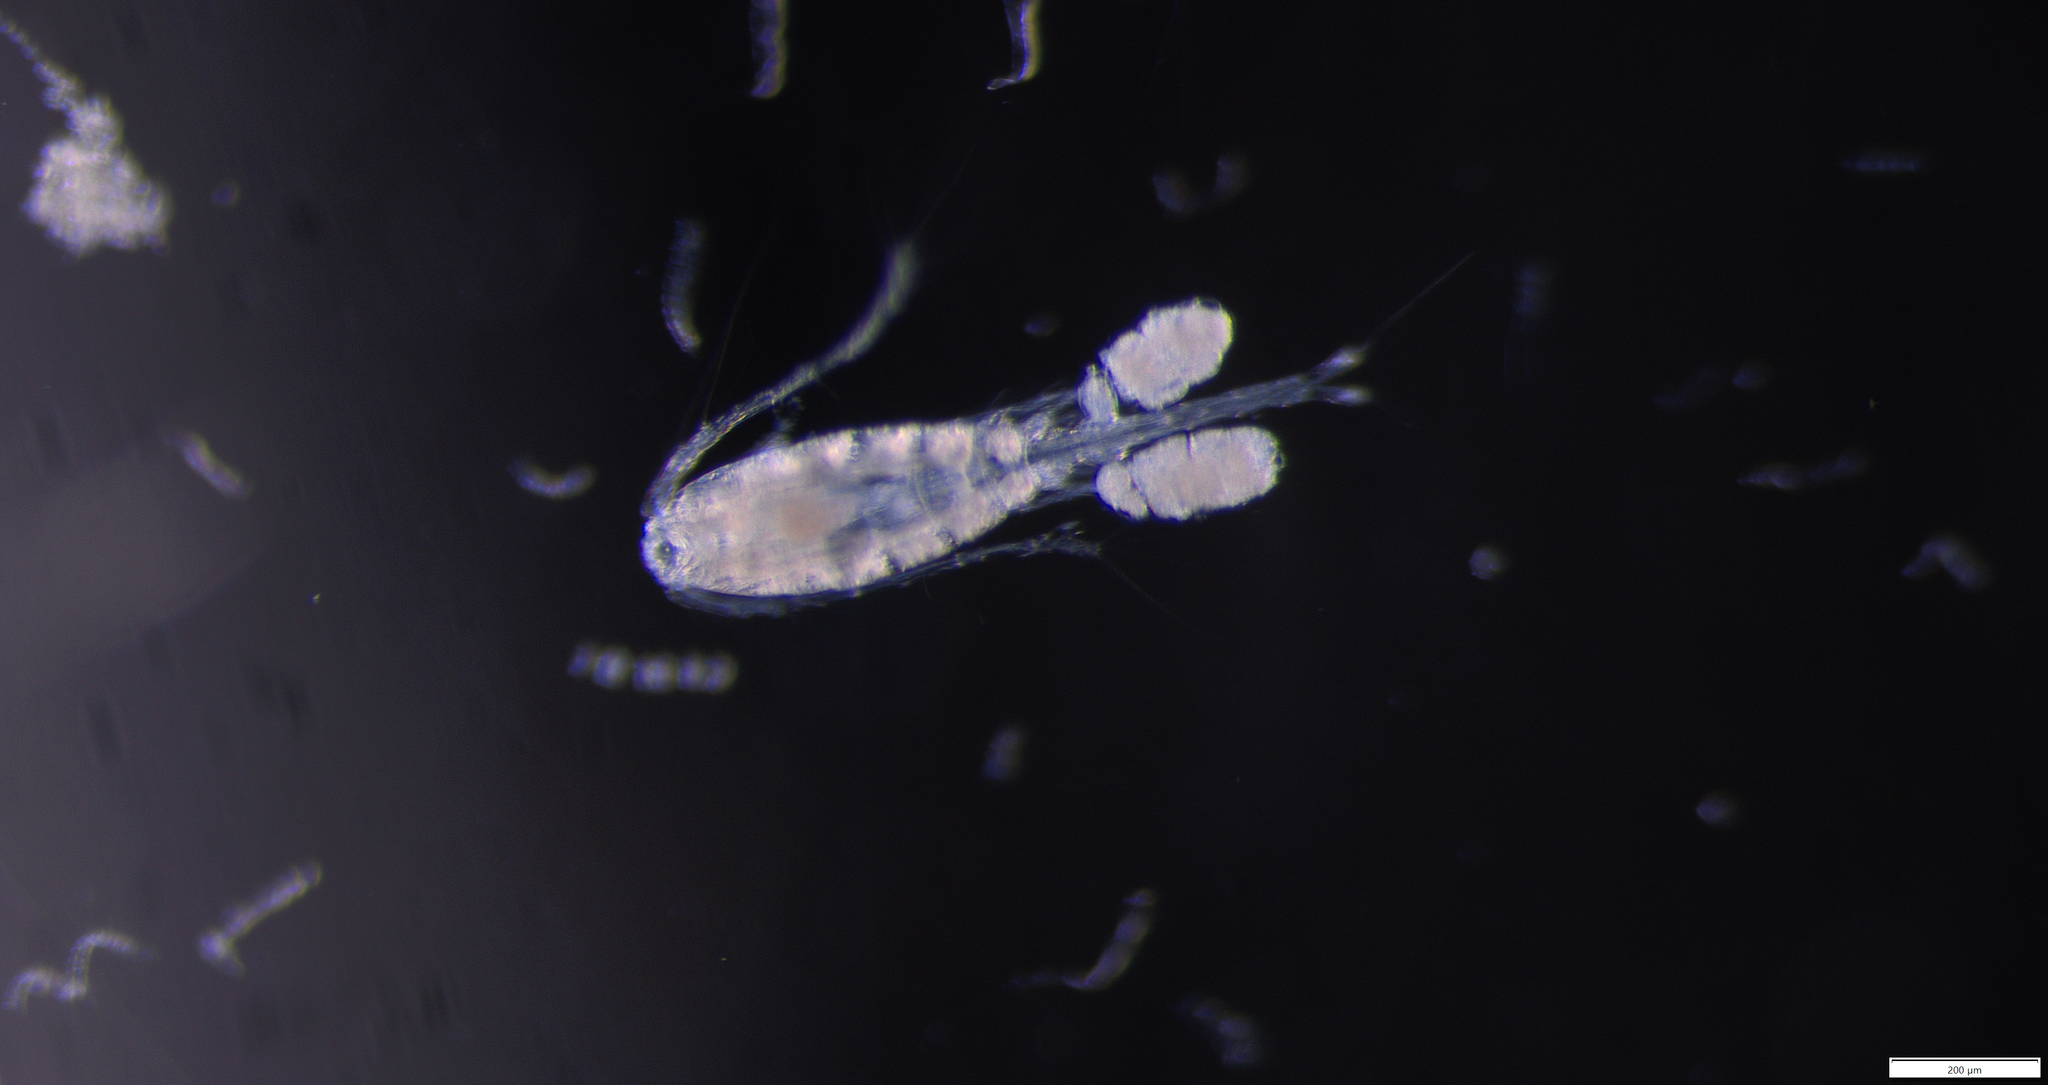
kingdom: Animalia
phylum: Arthropoda
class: Copepoda
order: Cyclopoida
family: Oithonidae
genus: Oithona
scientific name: Oithona similis
